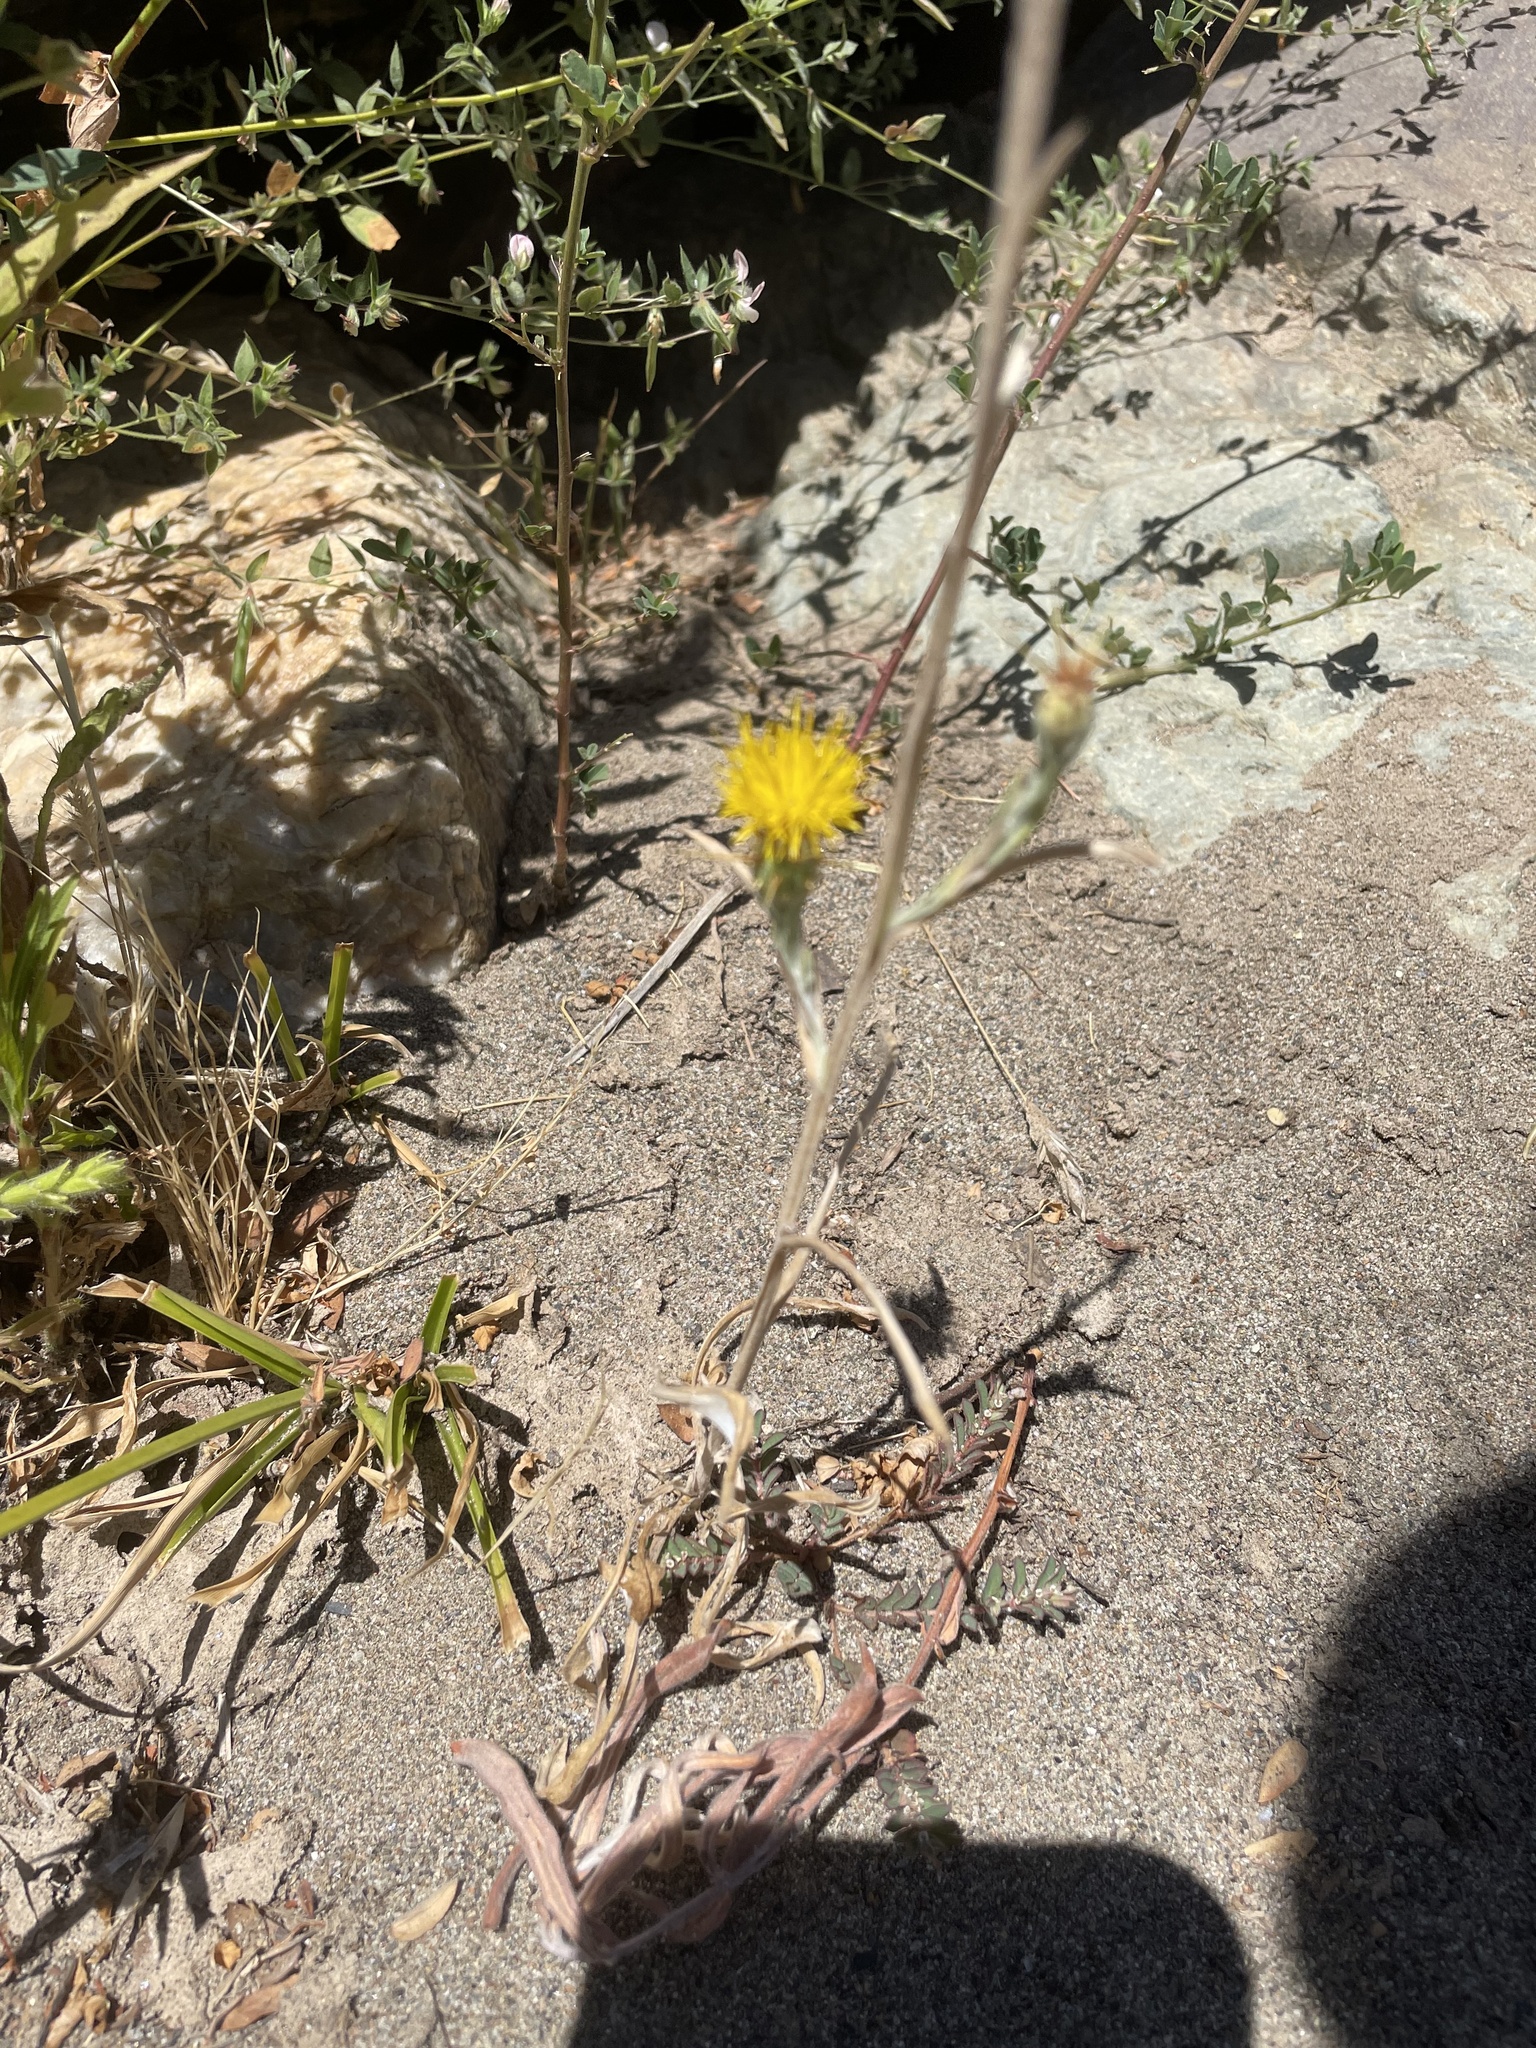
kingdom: Plantae
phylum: Tracheophyta
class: Magnoliopsida
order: Asterales
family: Asteraceae
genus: Centaurea
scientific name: Centaurea solstitialis
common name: Yellow star-thistle
